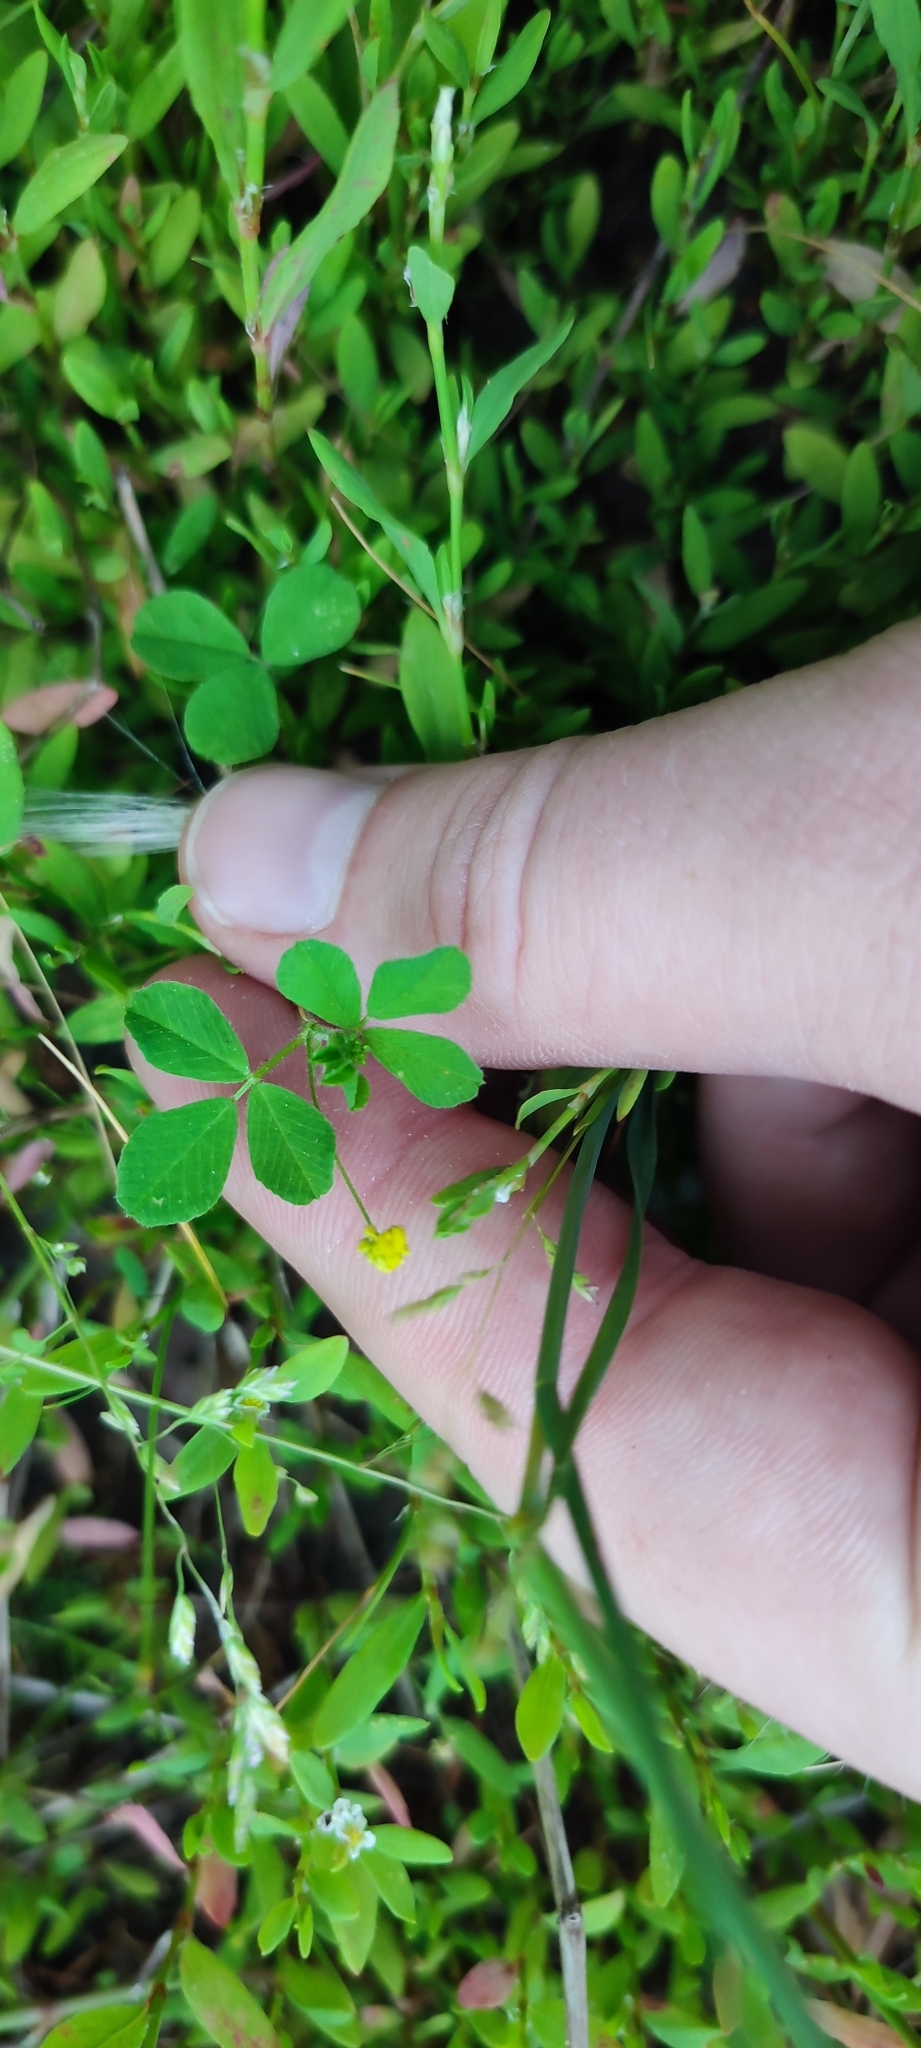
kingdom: Plantae
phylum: Tracheophyta
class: Magnoliopsida
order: Fabales
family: Fabaceae
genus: Medicago
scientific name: Medicago lupulina
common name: Black medick
